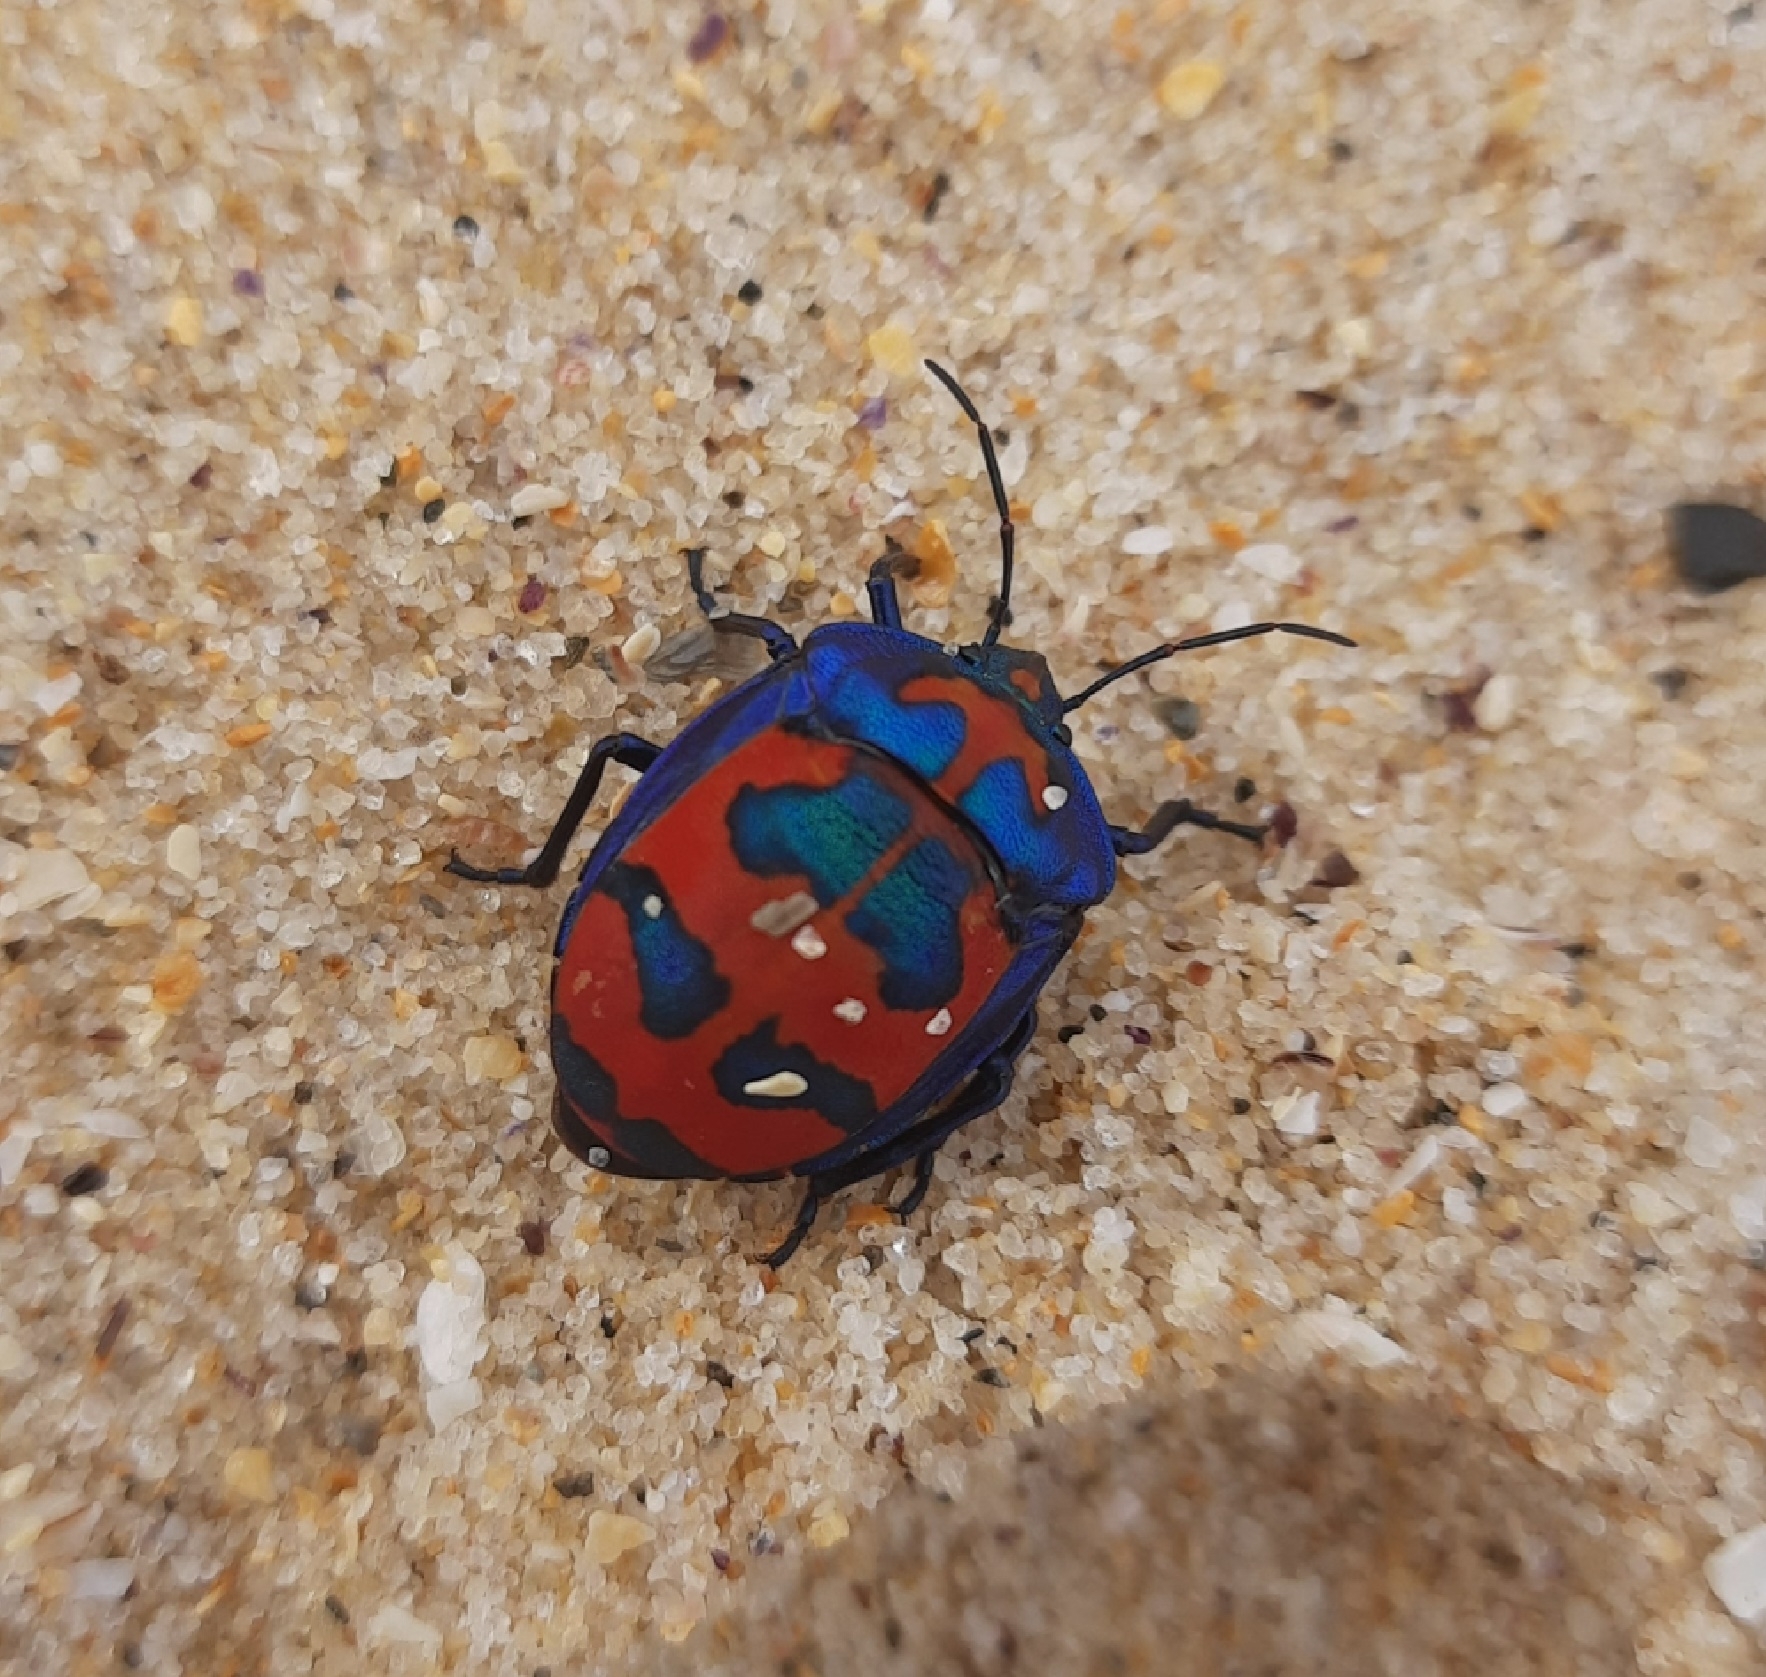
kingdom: Animalia
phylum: Arthropoda
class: Insecta
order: Hemiptera
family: Scutelleridae
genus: Tectocoris
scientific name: Tectocoris diophthalmus
